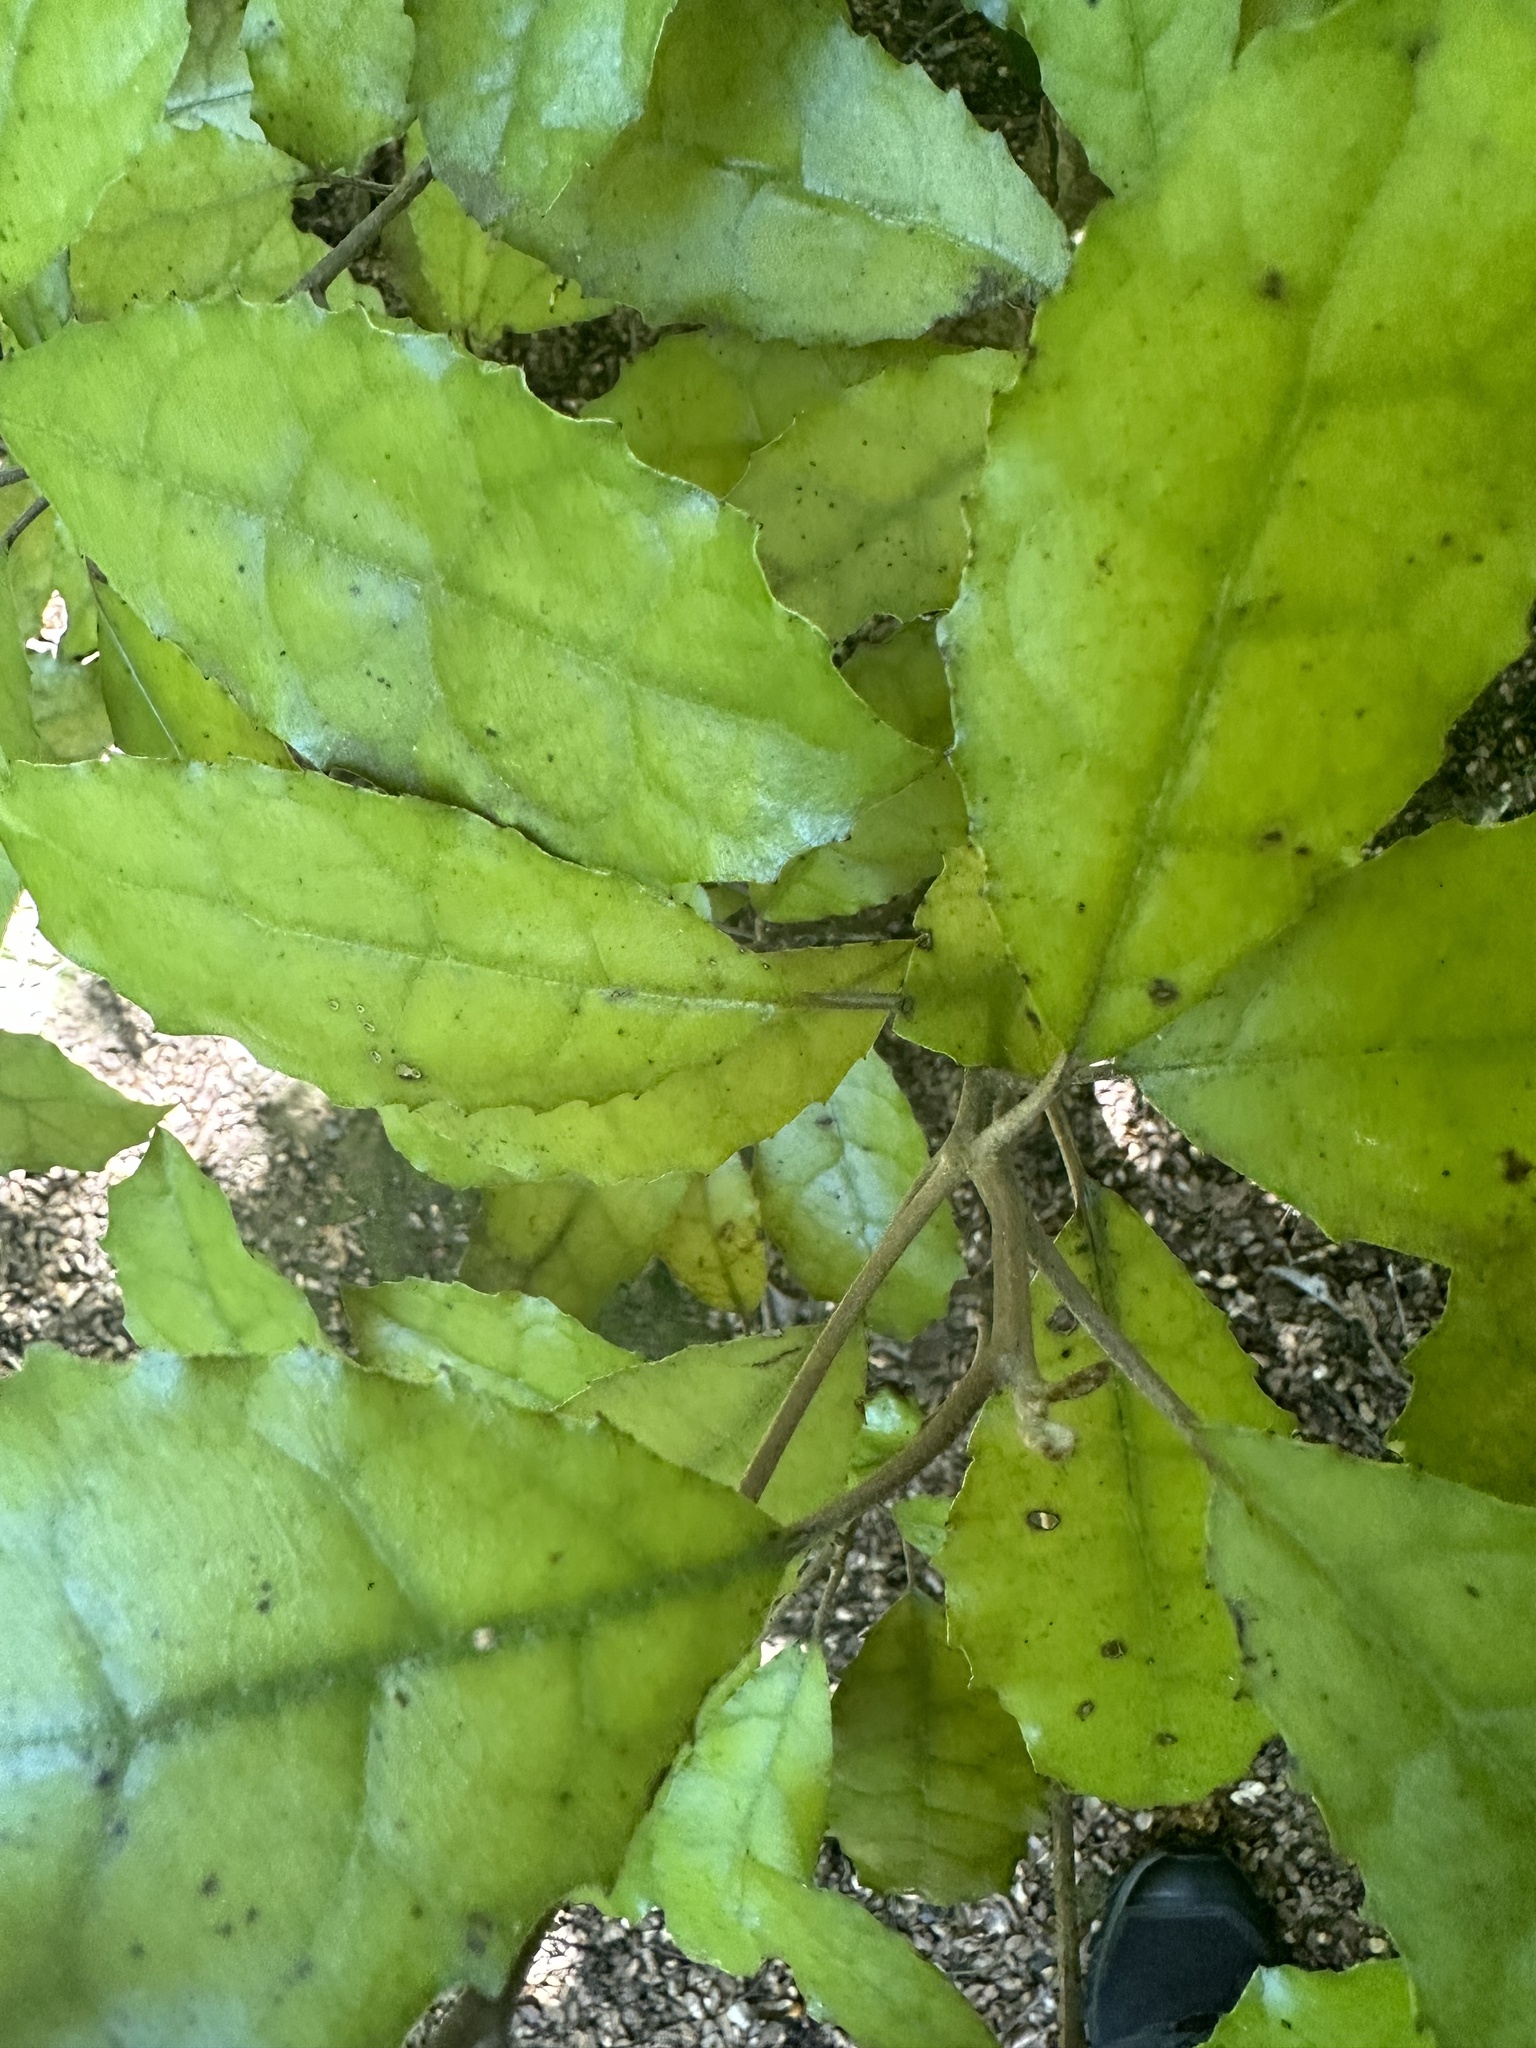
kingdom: Plantae
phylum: Tracheophyta
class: Magnoliopsida
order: Asterales
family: Asteraceae
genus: Olearia
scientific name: Olearia rani
